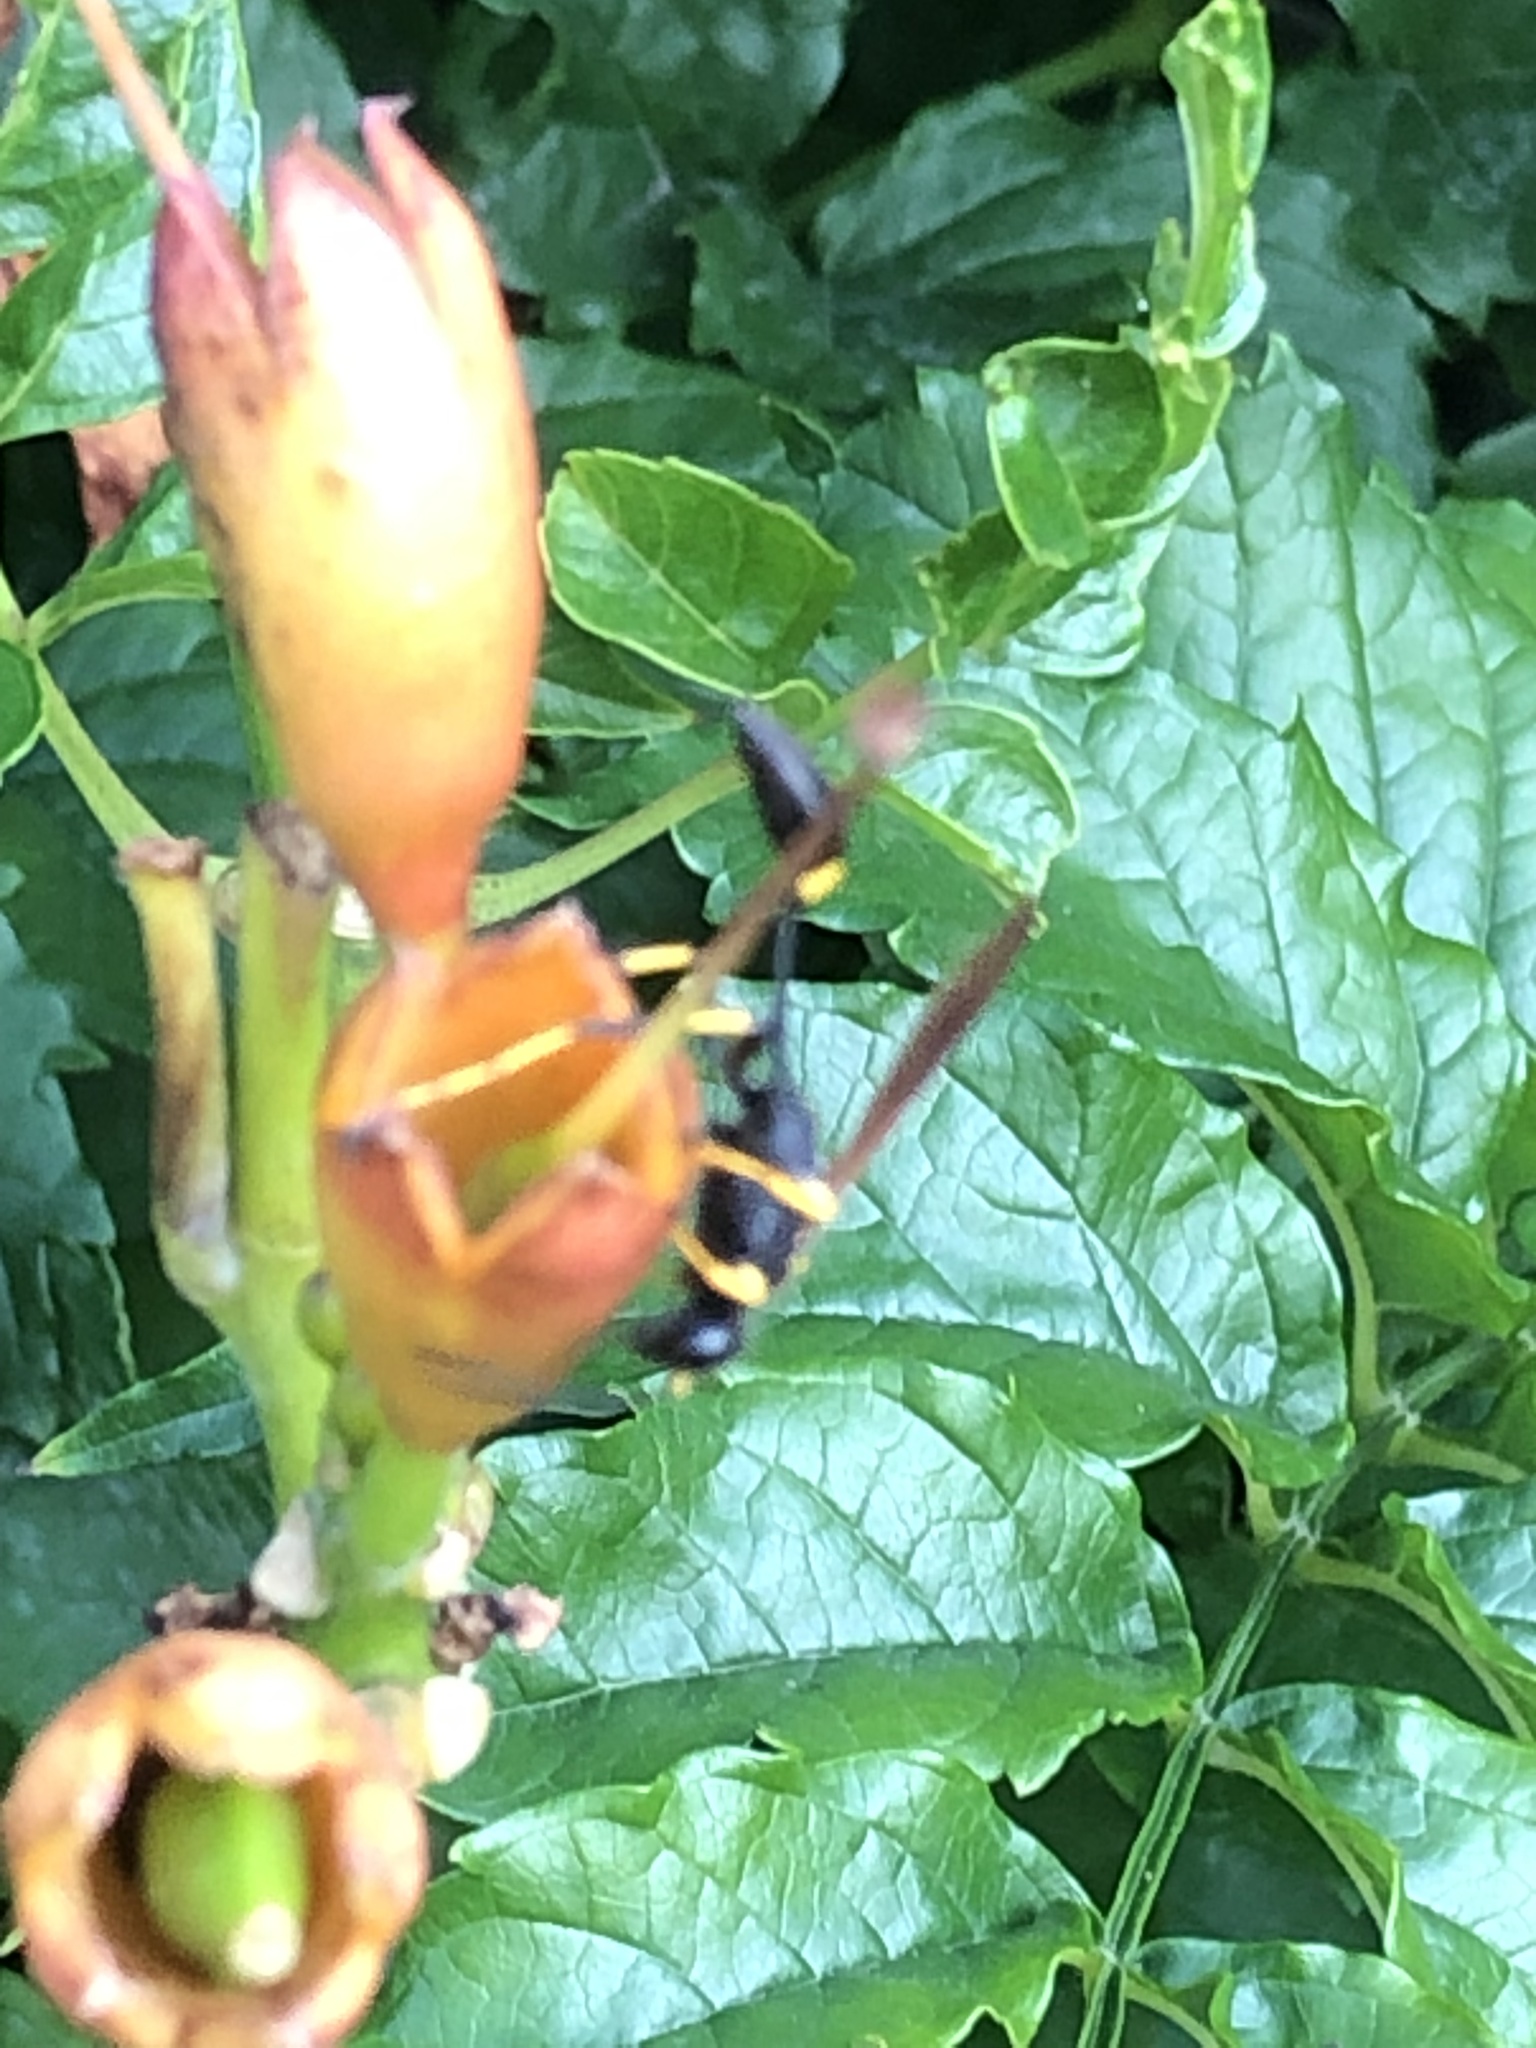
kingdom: Animalia
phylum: Arthropoda
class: Insecta
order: Hymenoptera
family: Sphecidae
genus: Sceliphron
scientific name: Sceliphron caementarium
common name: Mud dauber
